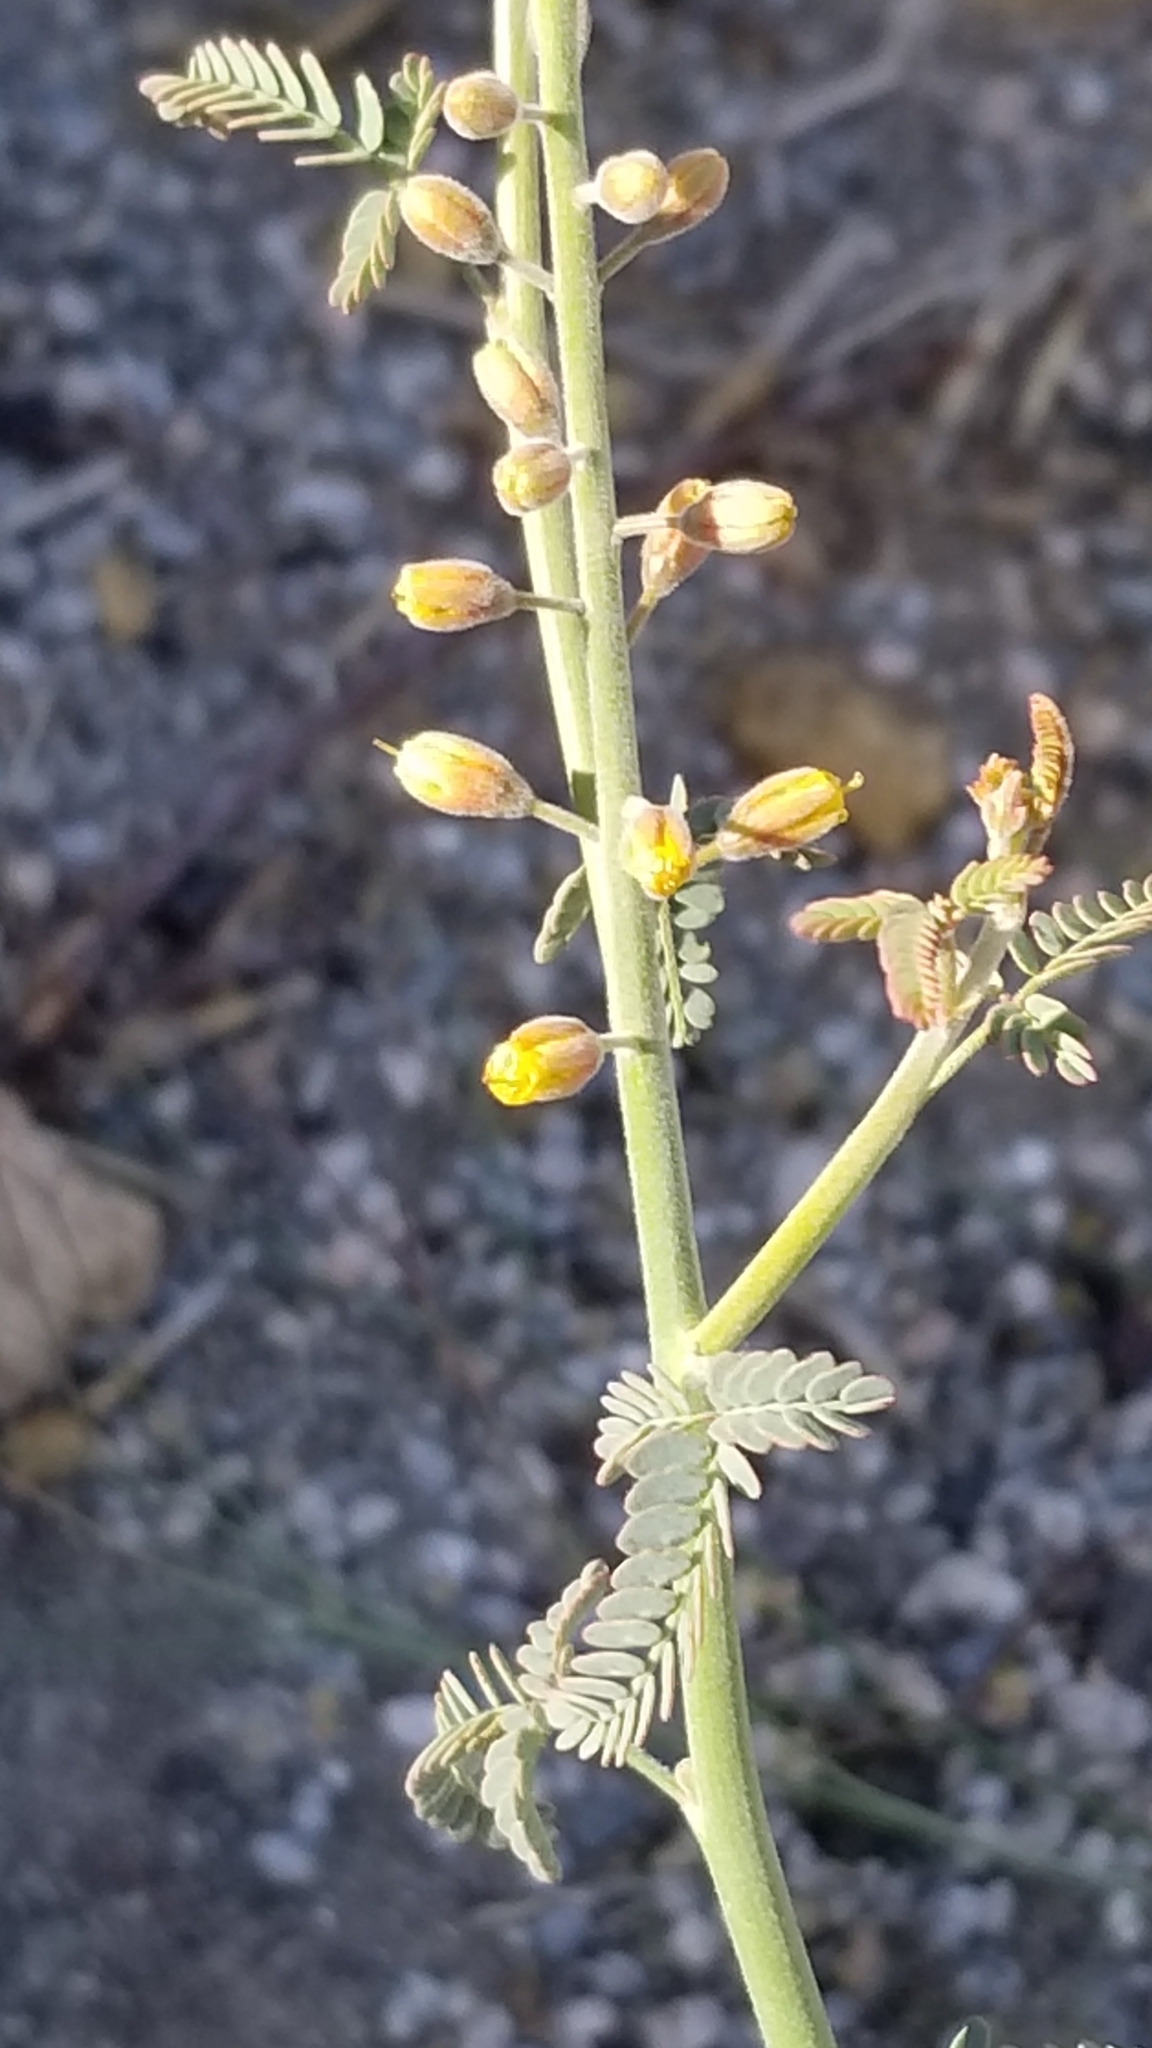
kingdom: Plantae
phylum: Tracheophyta
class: Magnoliopsida
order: Fabales
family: Fabaceae
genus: Hoffmannseggia
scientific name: Hoffmannseggia microphylla
